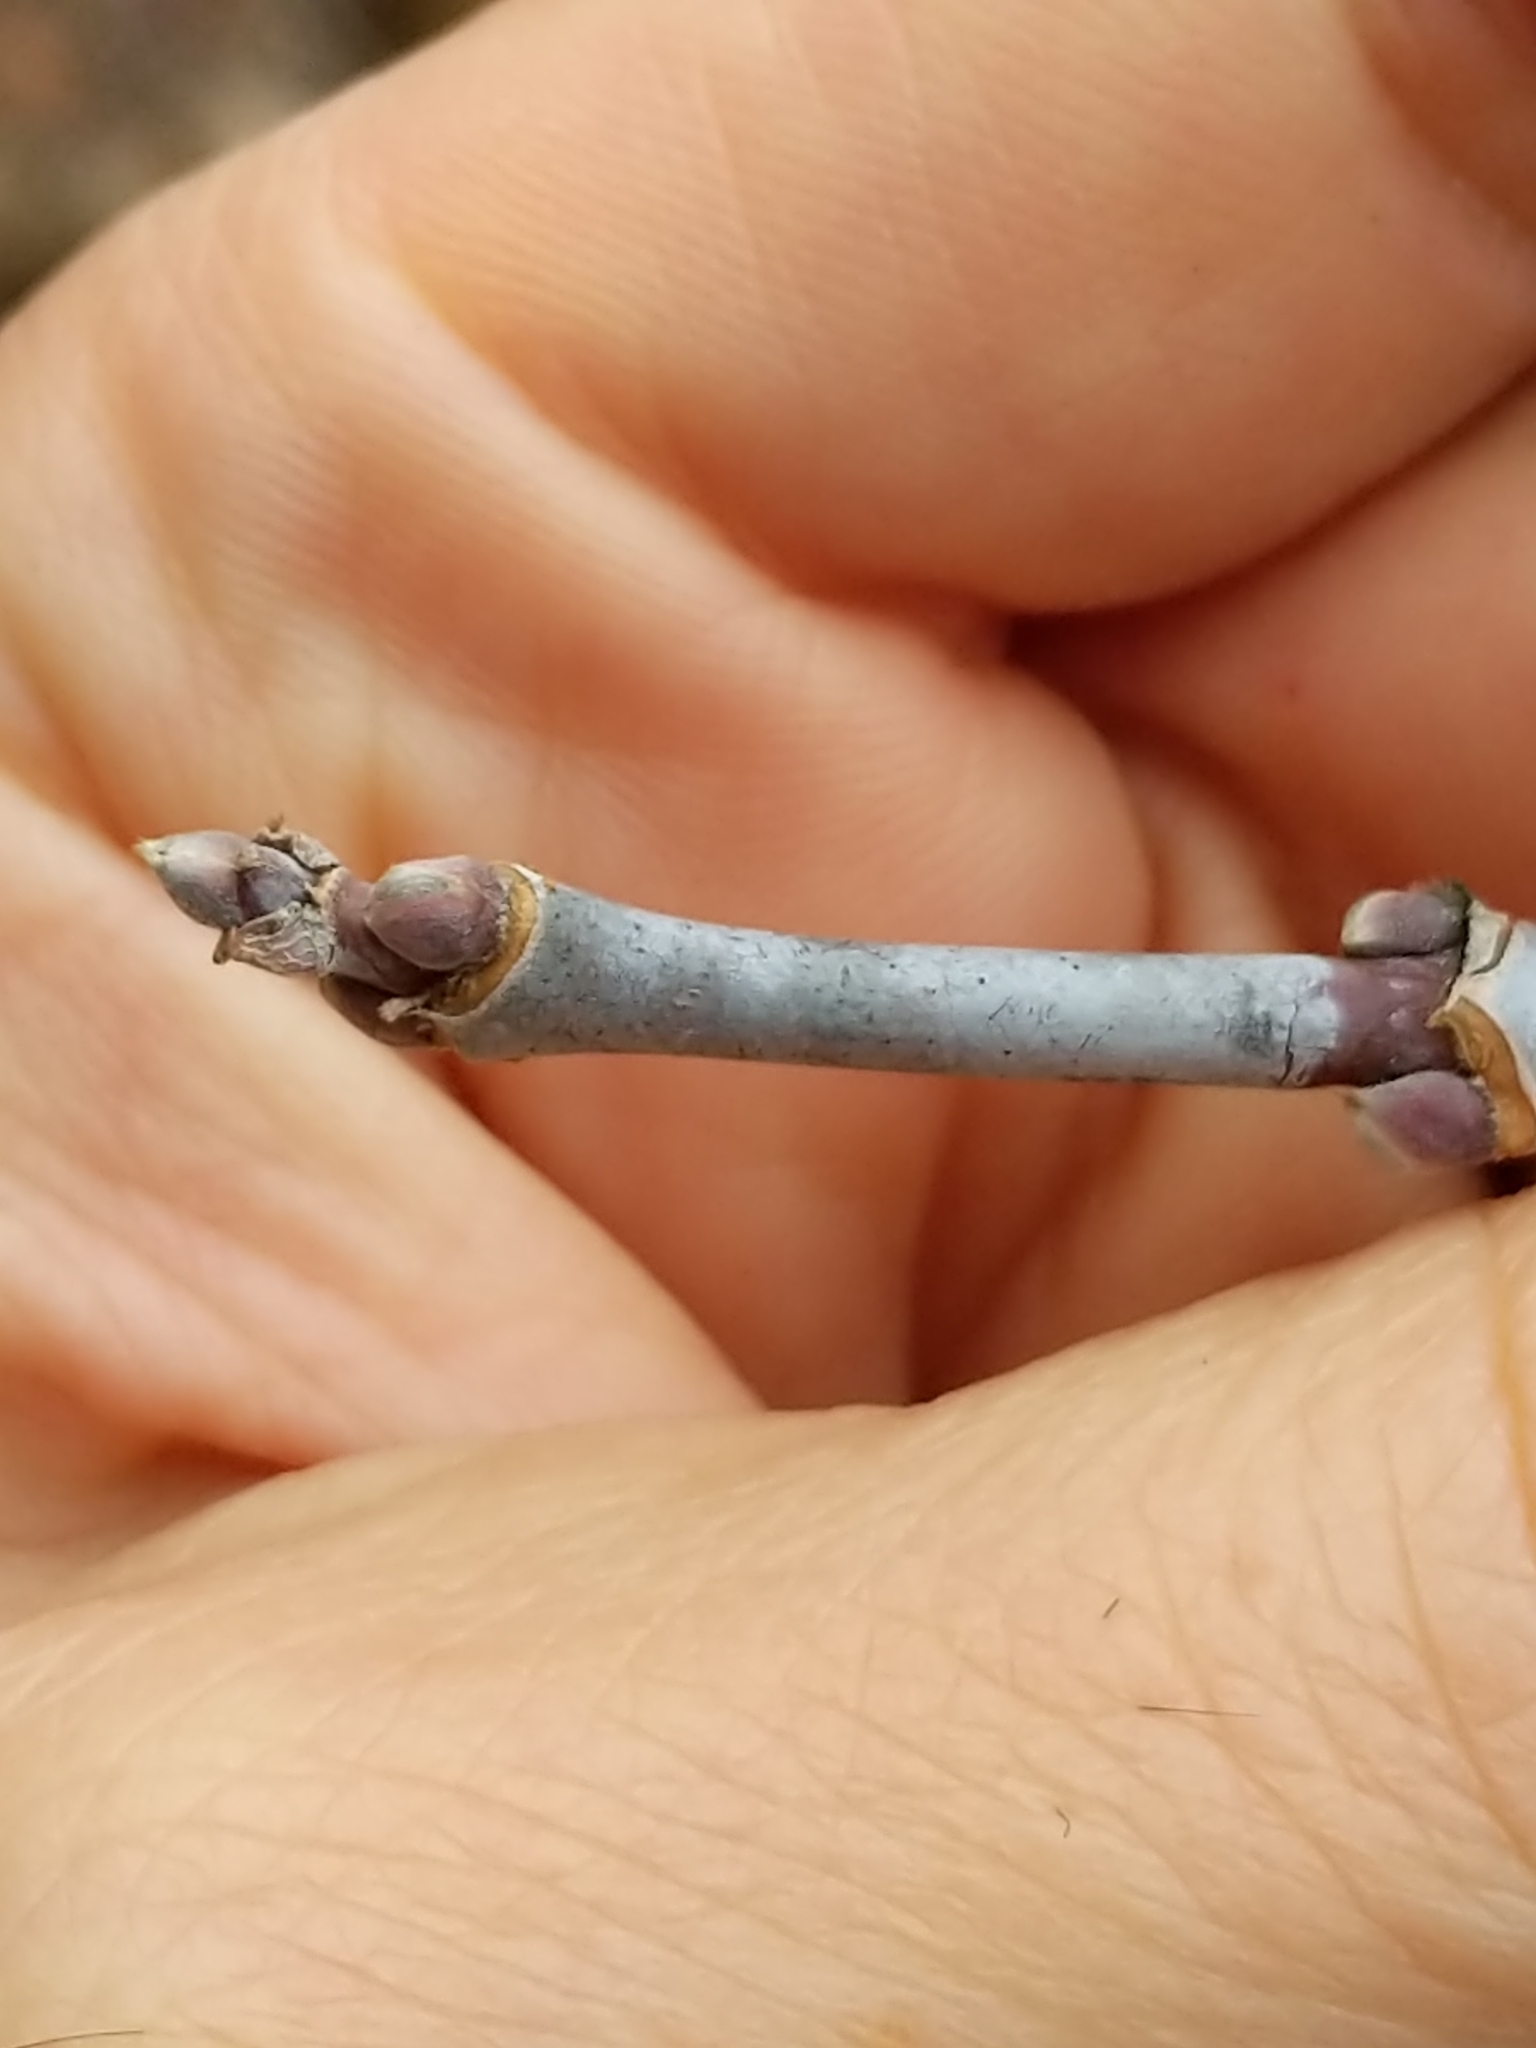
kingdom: Plantae
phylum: Tracheophyta
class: Magnoliopsida
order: Sapindales
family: Sapindaceae
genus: Acer
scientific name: Acer negundo
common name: Ashleaf maple
